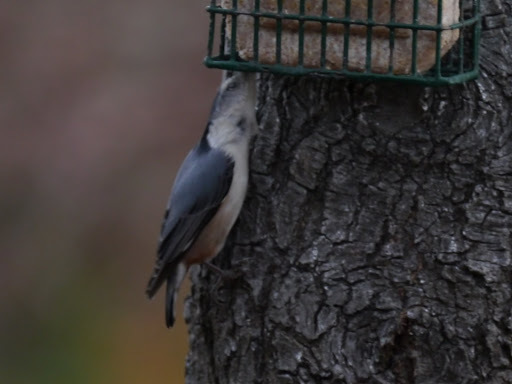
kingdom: Animalia
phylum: Chordata
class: Aves
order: Passeriformes
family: Sittidae
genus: Sitta
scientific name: Sitta carolinensis
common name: White-breasted nuthatch
